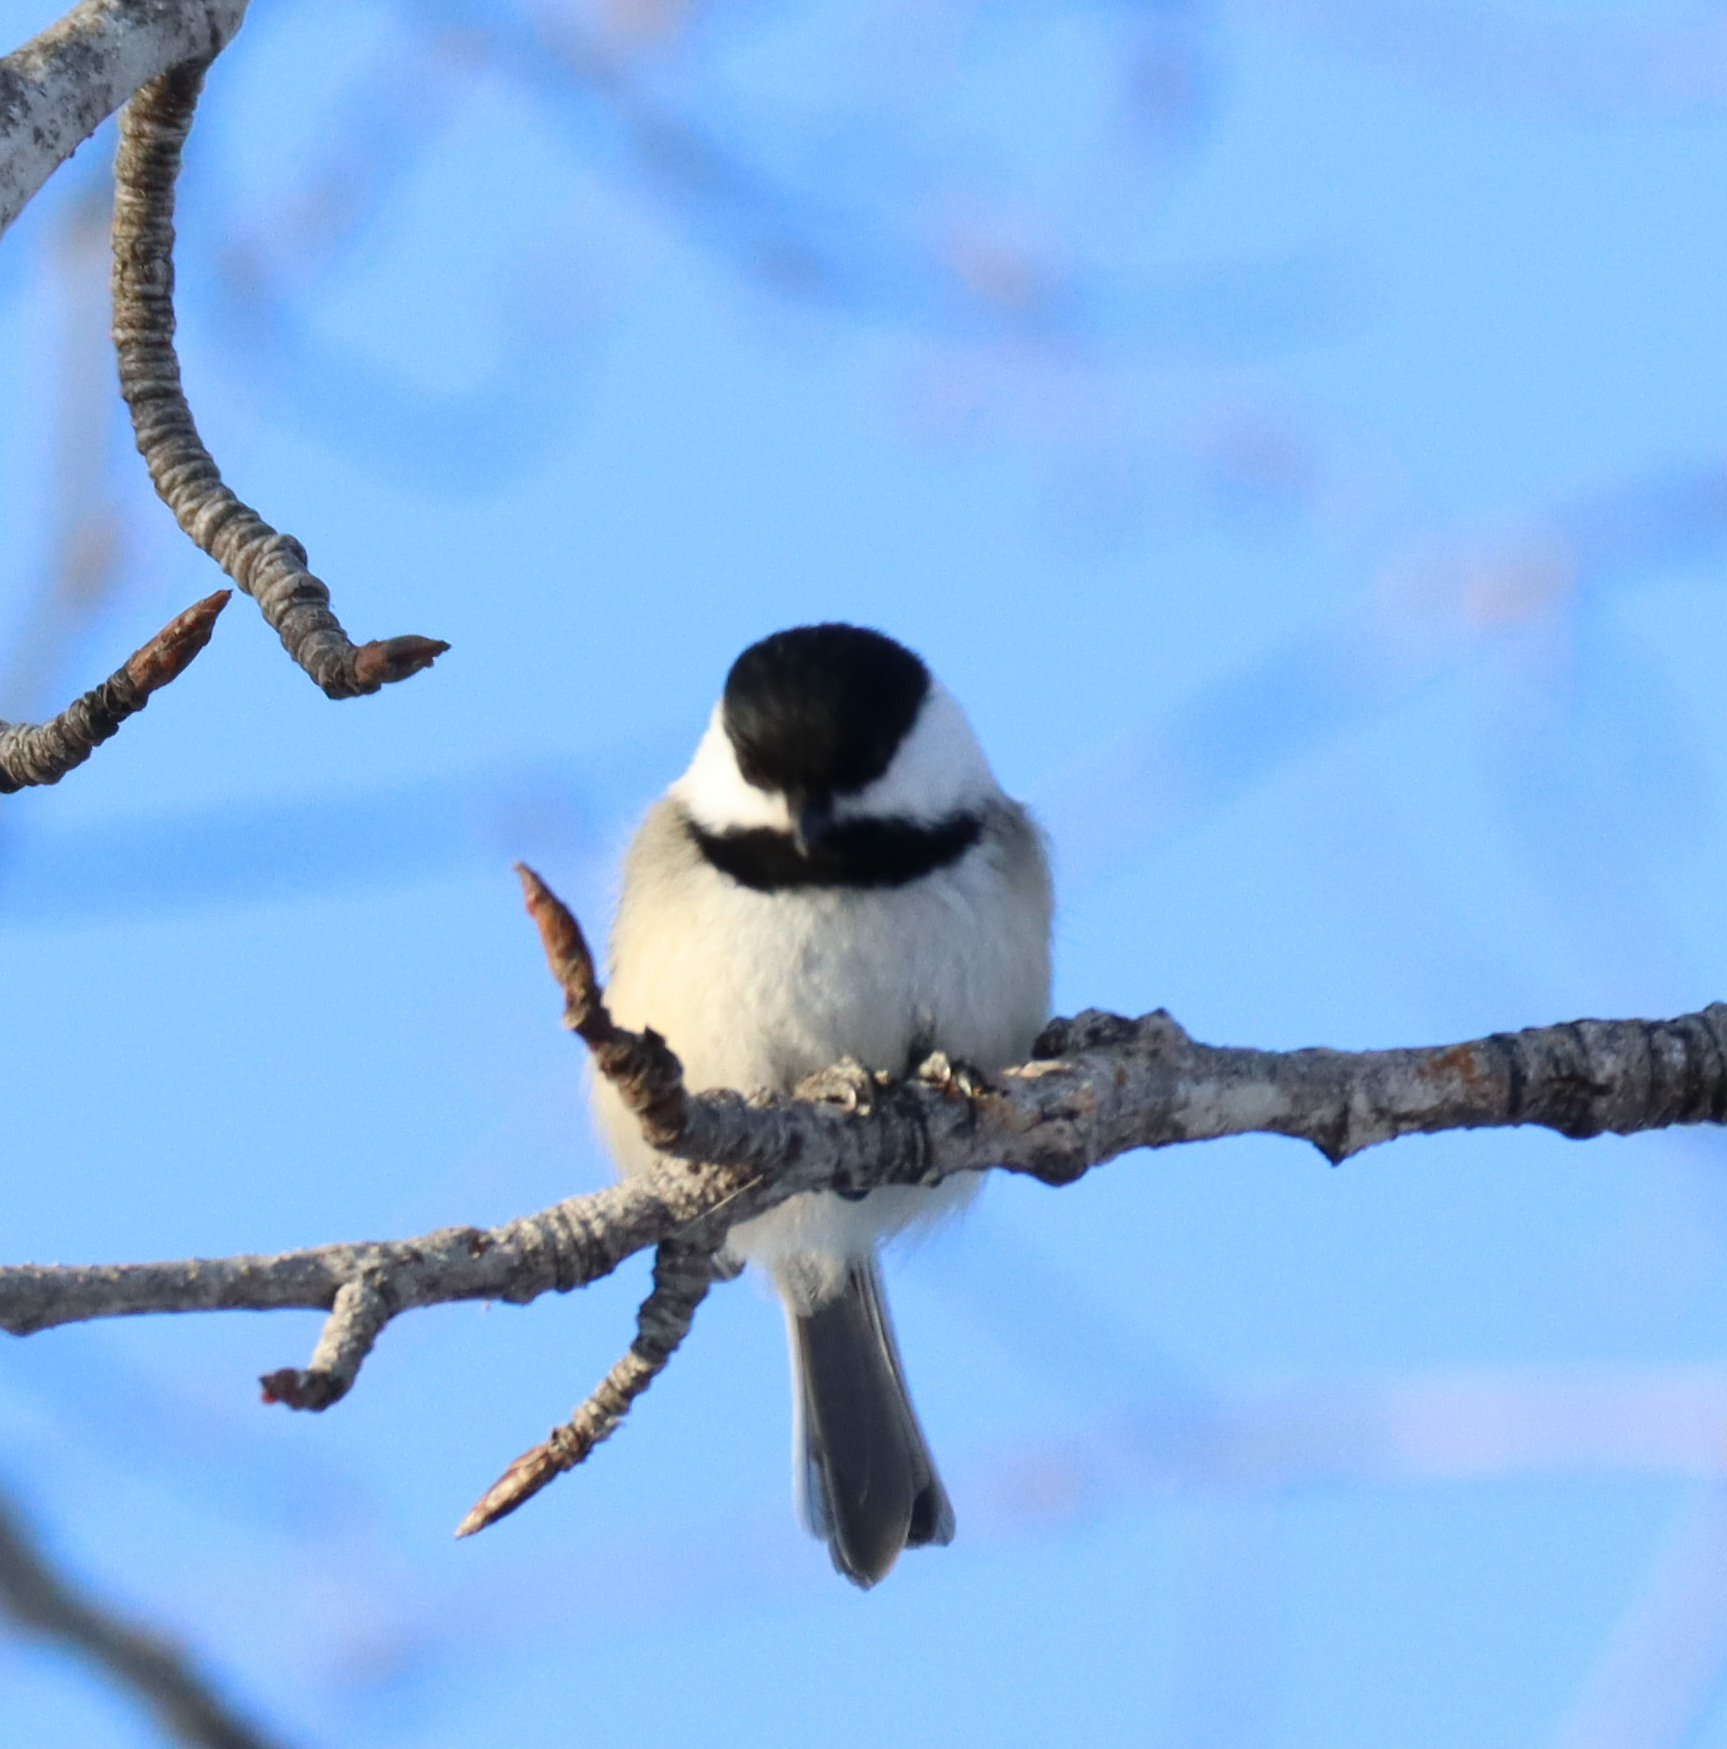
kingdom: Animalia
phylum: Chordata
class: Aves
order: Passeriformes
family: Paridae
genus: Poecile
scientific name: Poecile atricapillus
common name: Black-capped chickadee
